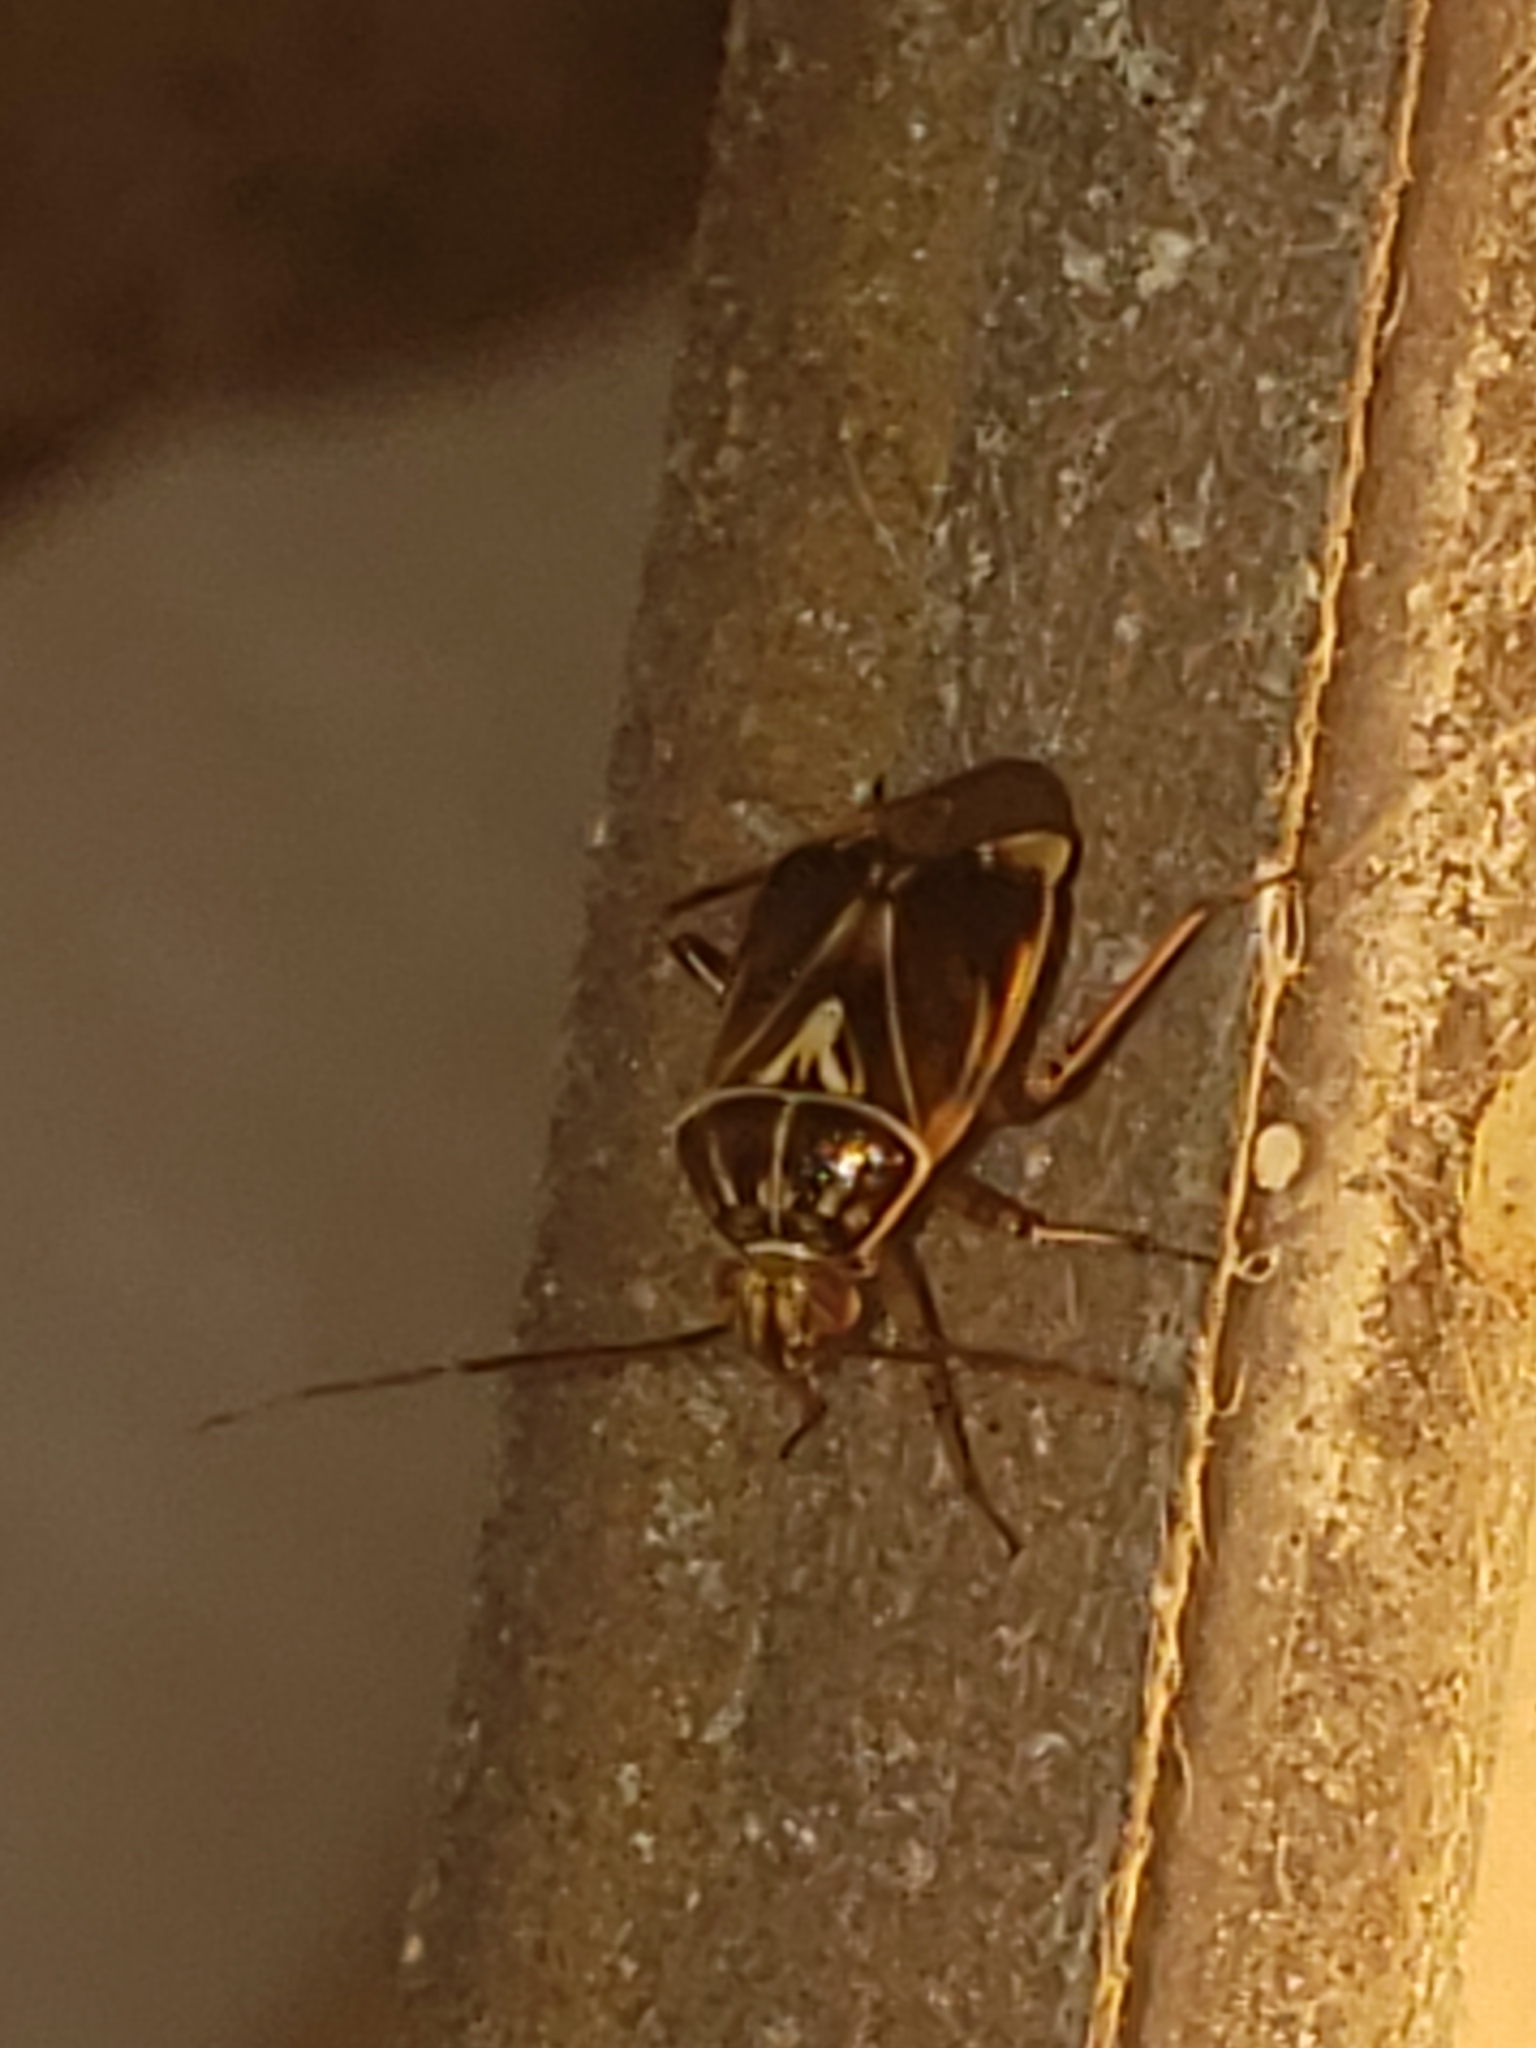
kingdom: Animalia
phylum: Arthropoda
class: Insecta
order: Hemiptera
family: Miridae
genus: Lygus
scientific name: Lygus lineolaris
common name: North american tarnished plant bug
